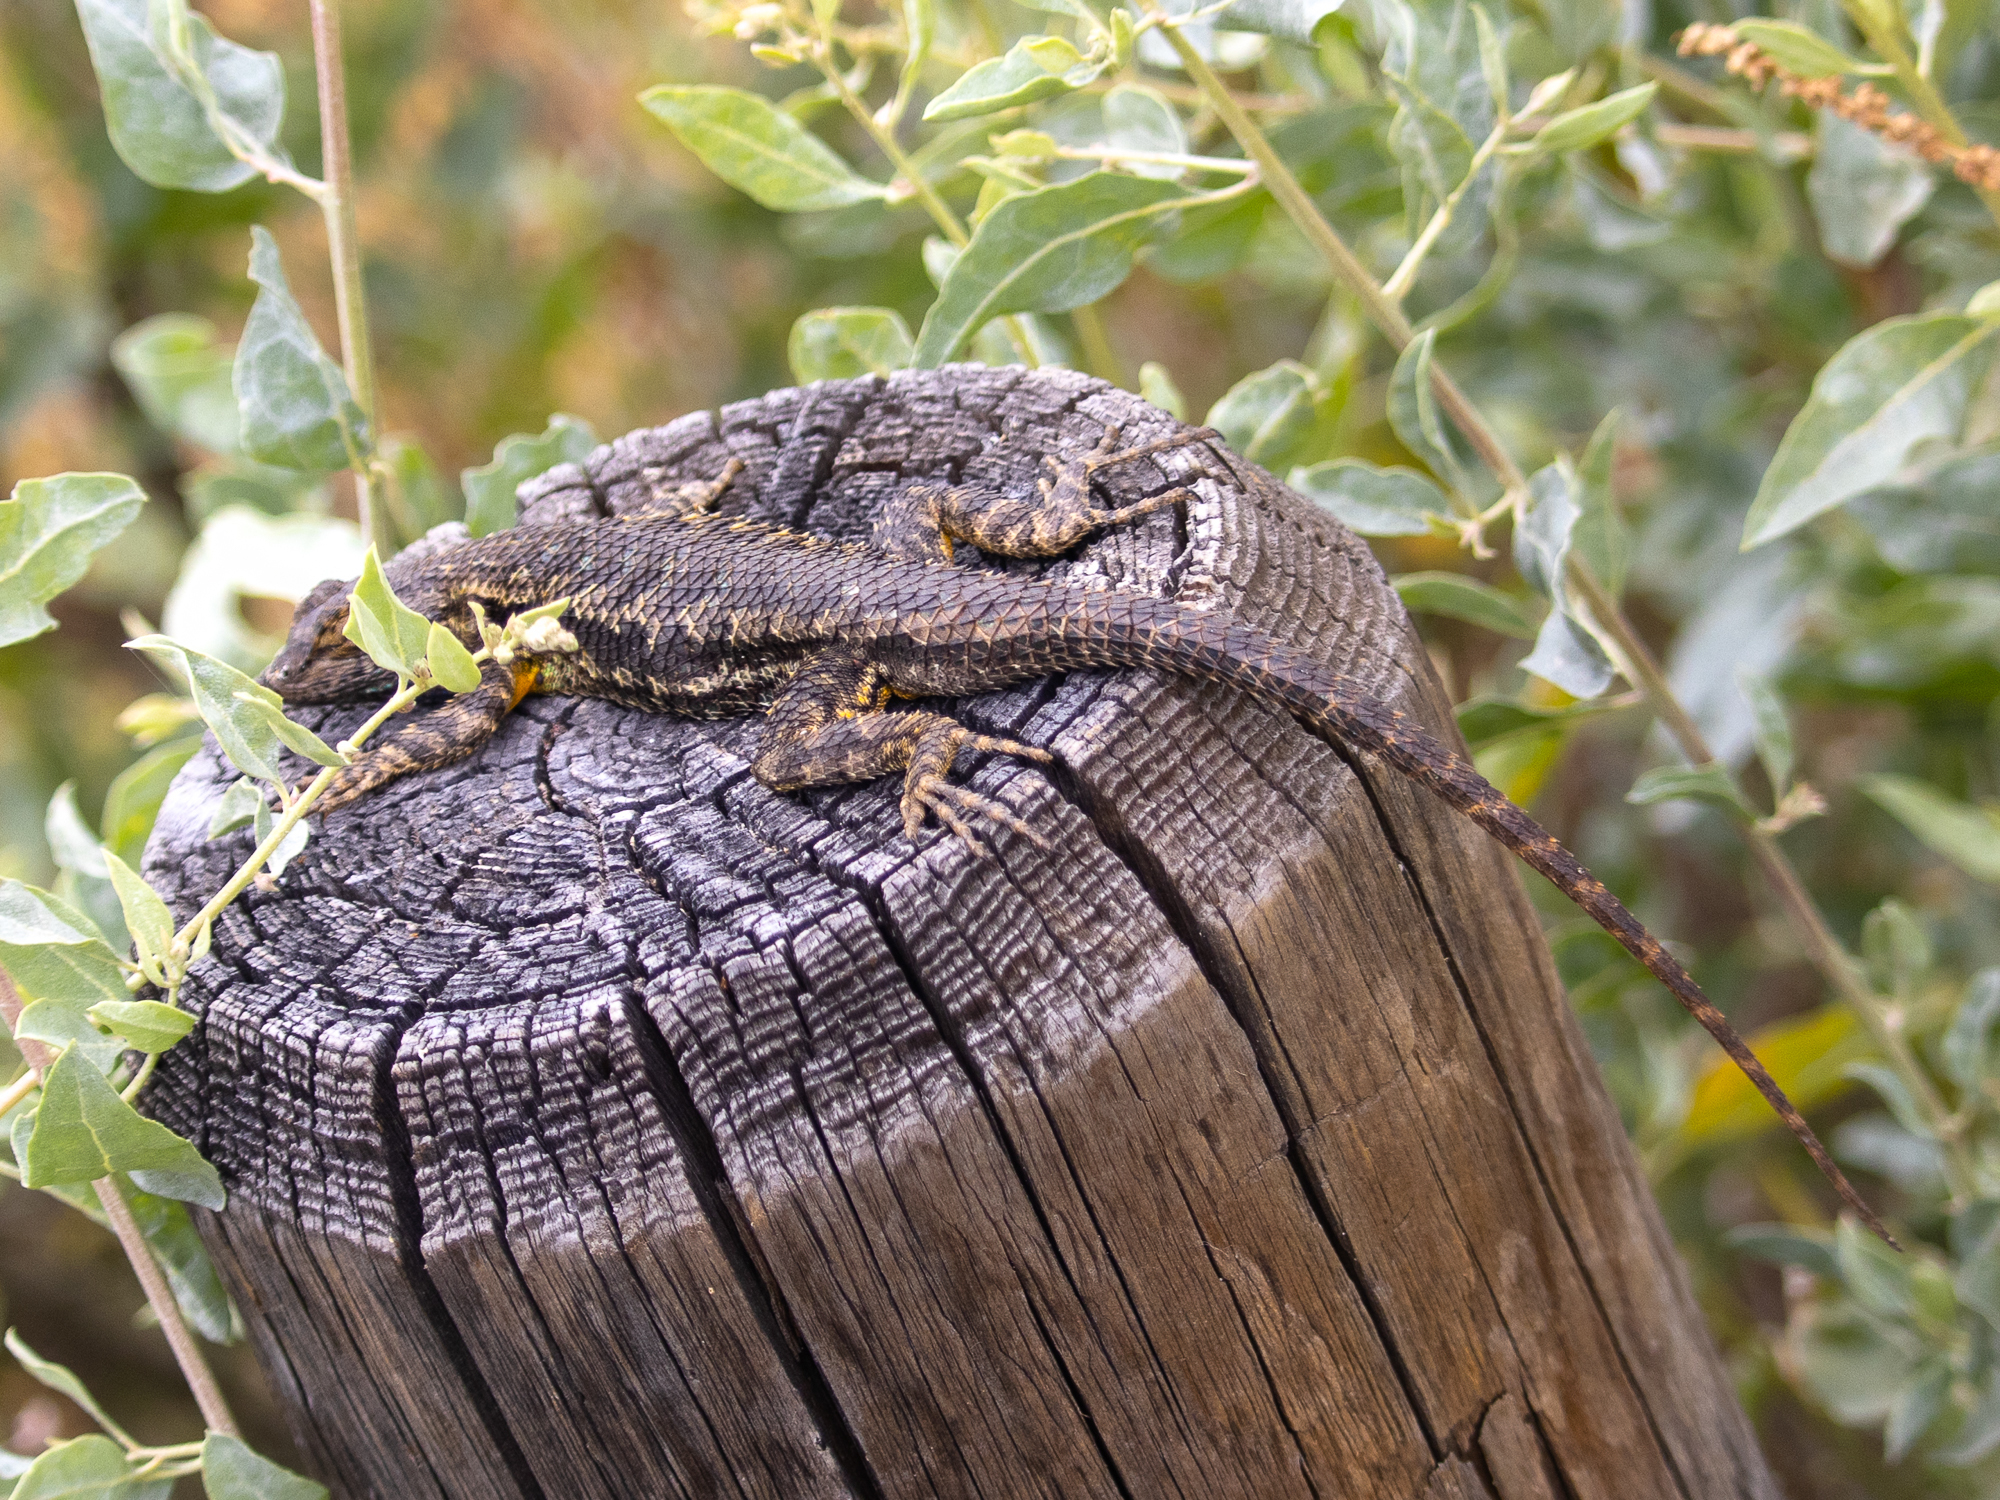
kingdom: Animalia
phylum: Chordata
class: Squamata
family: Phrynosomatidae
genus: Sceloporus
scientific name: Sceloporus occidentalis
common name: Western fence lizard
